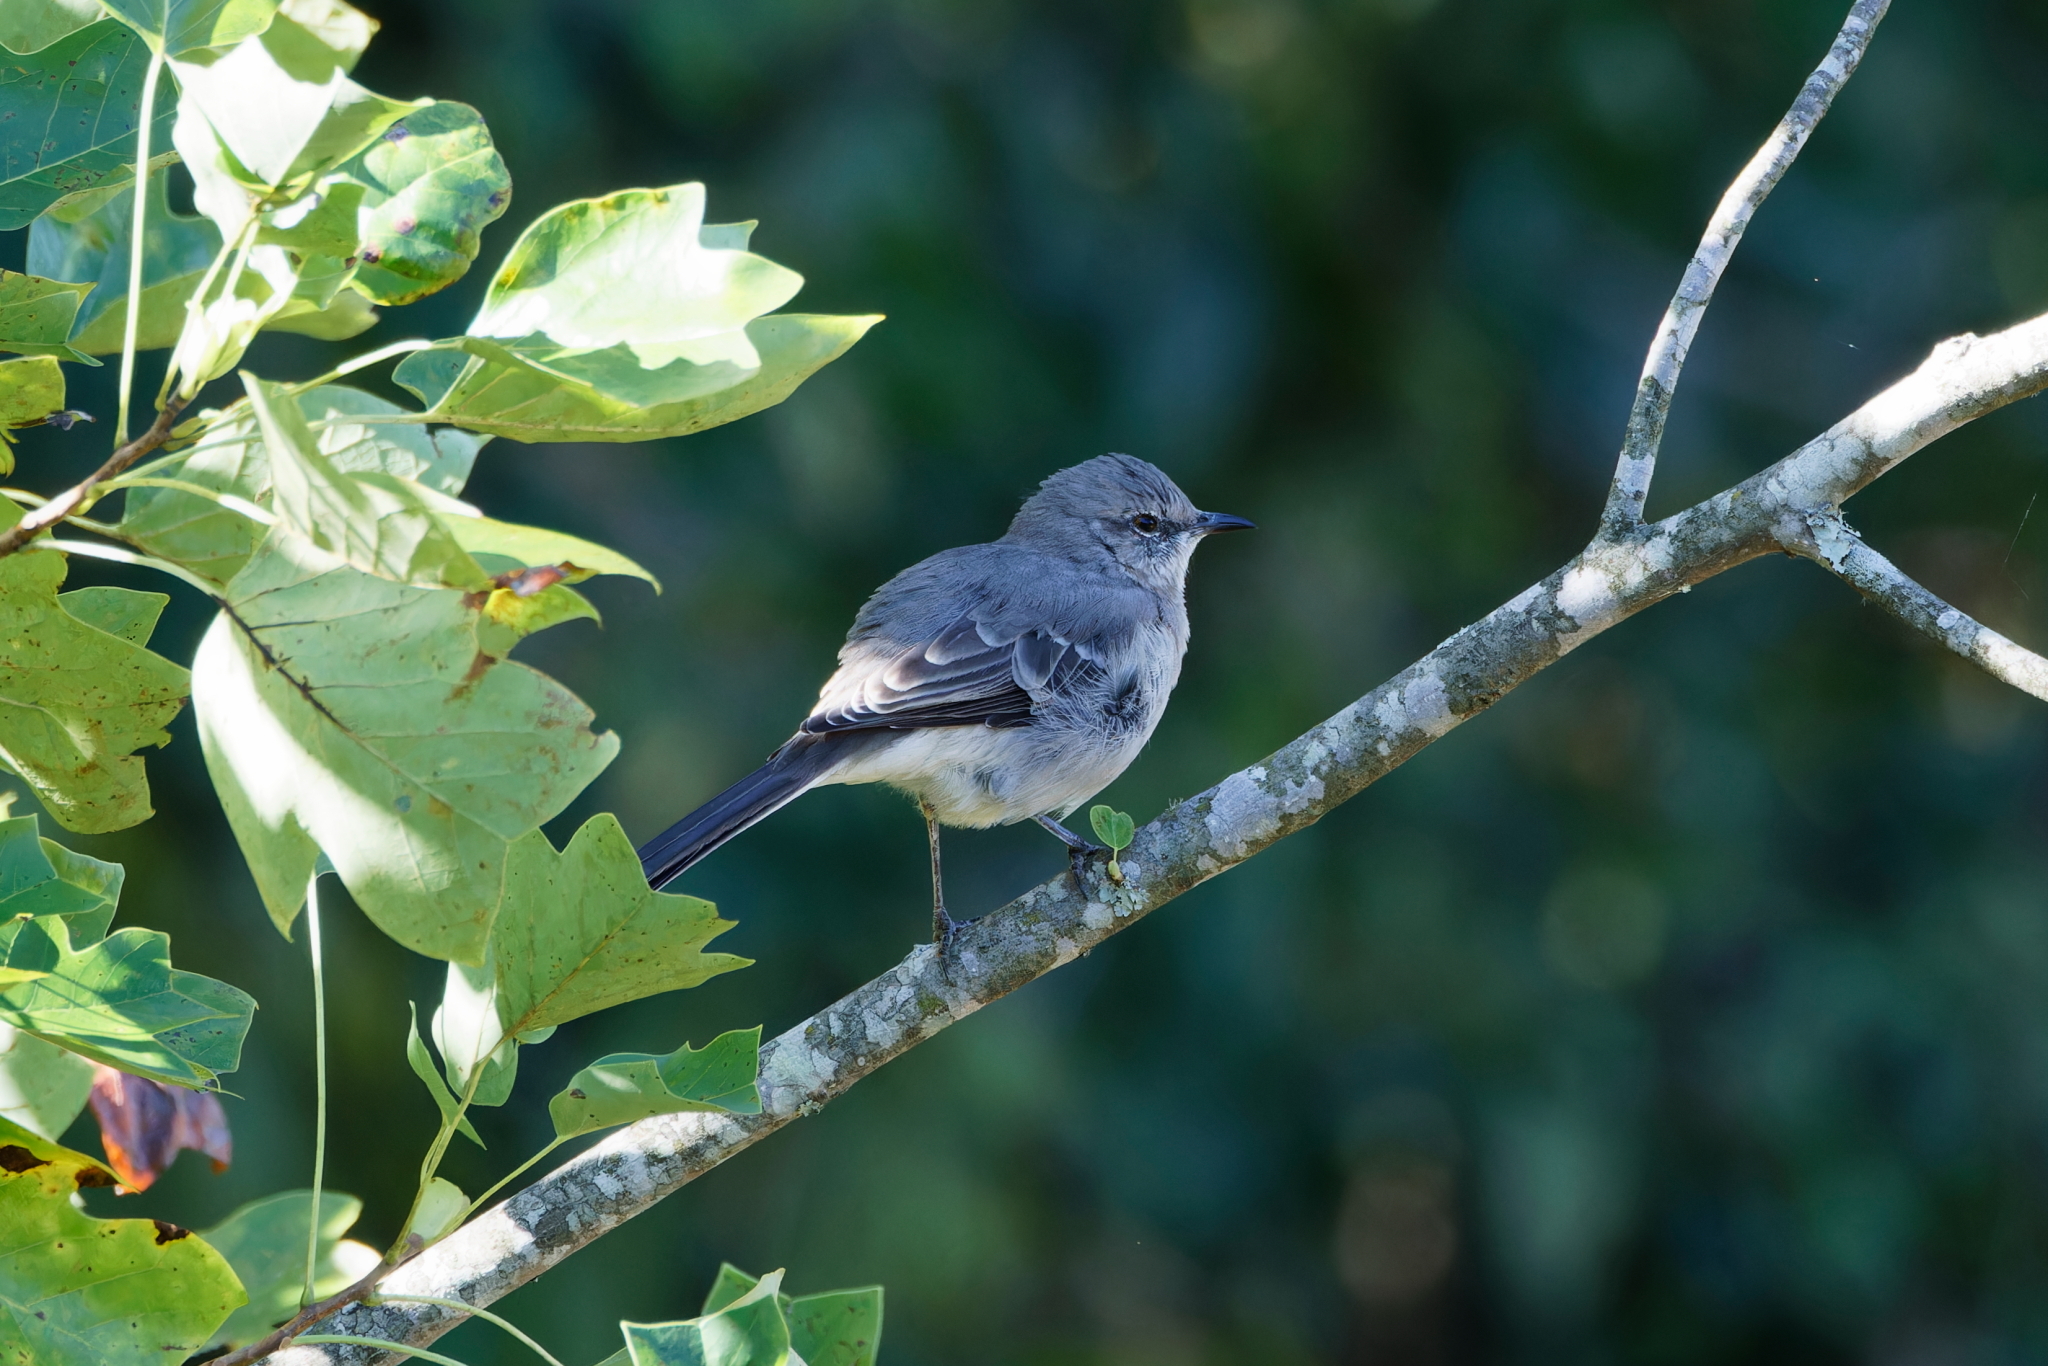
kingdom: Animalia
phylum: Chordata
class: Aves
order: Passeriformes
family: Mimidae
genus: Mimus
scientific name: Mimus polyglottos
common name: Northern mockingbird
